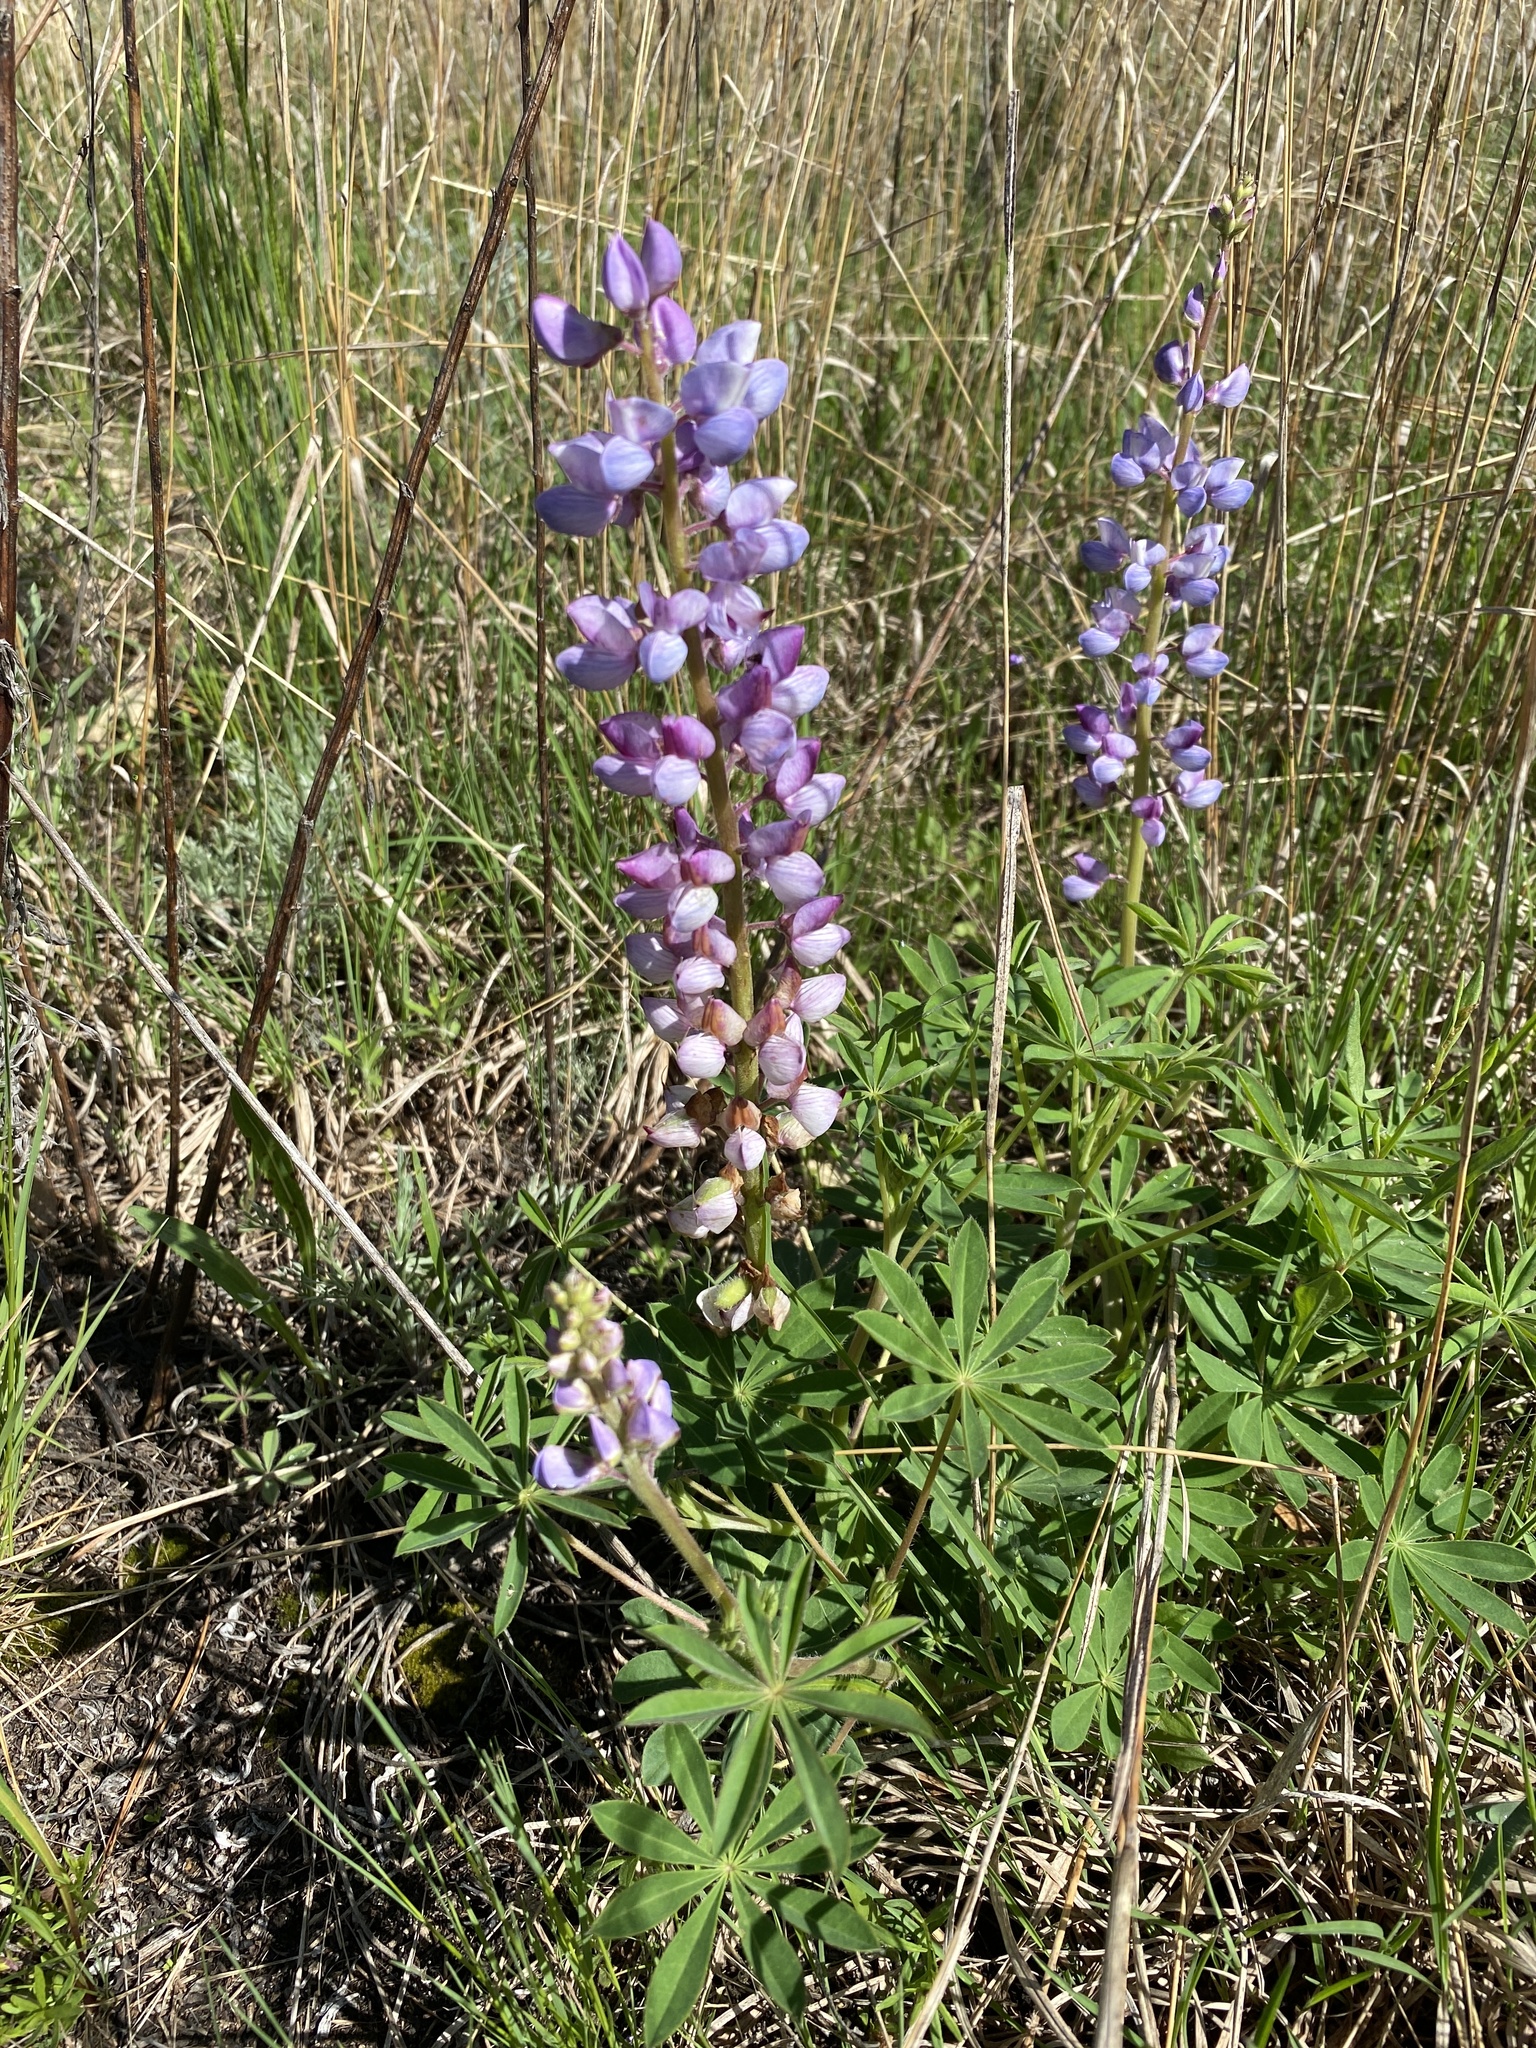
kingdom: Plantae
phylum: Tracheophyta
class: Magnoliopsida
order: Fabales
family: Fabaceae
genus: Lupinus
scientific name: Lupinus perennis
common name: Sundial lupine
